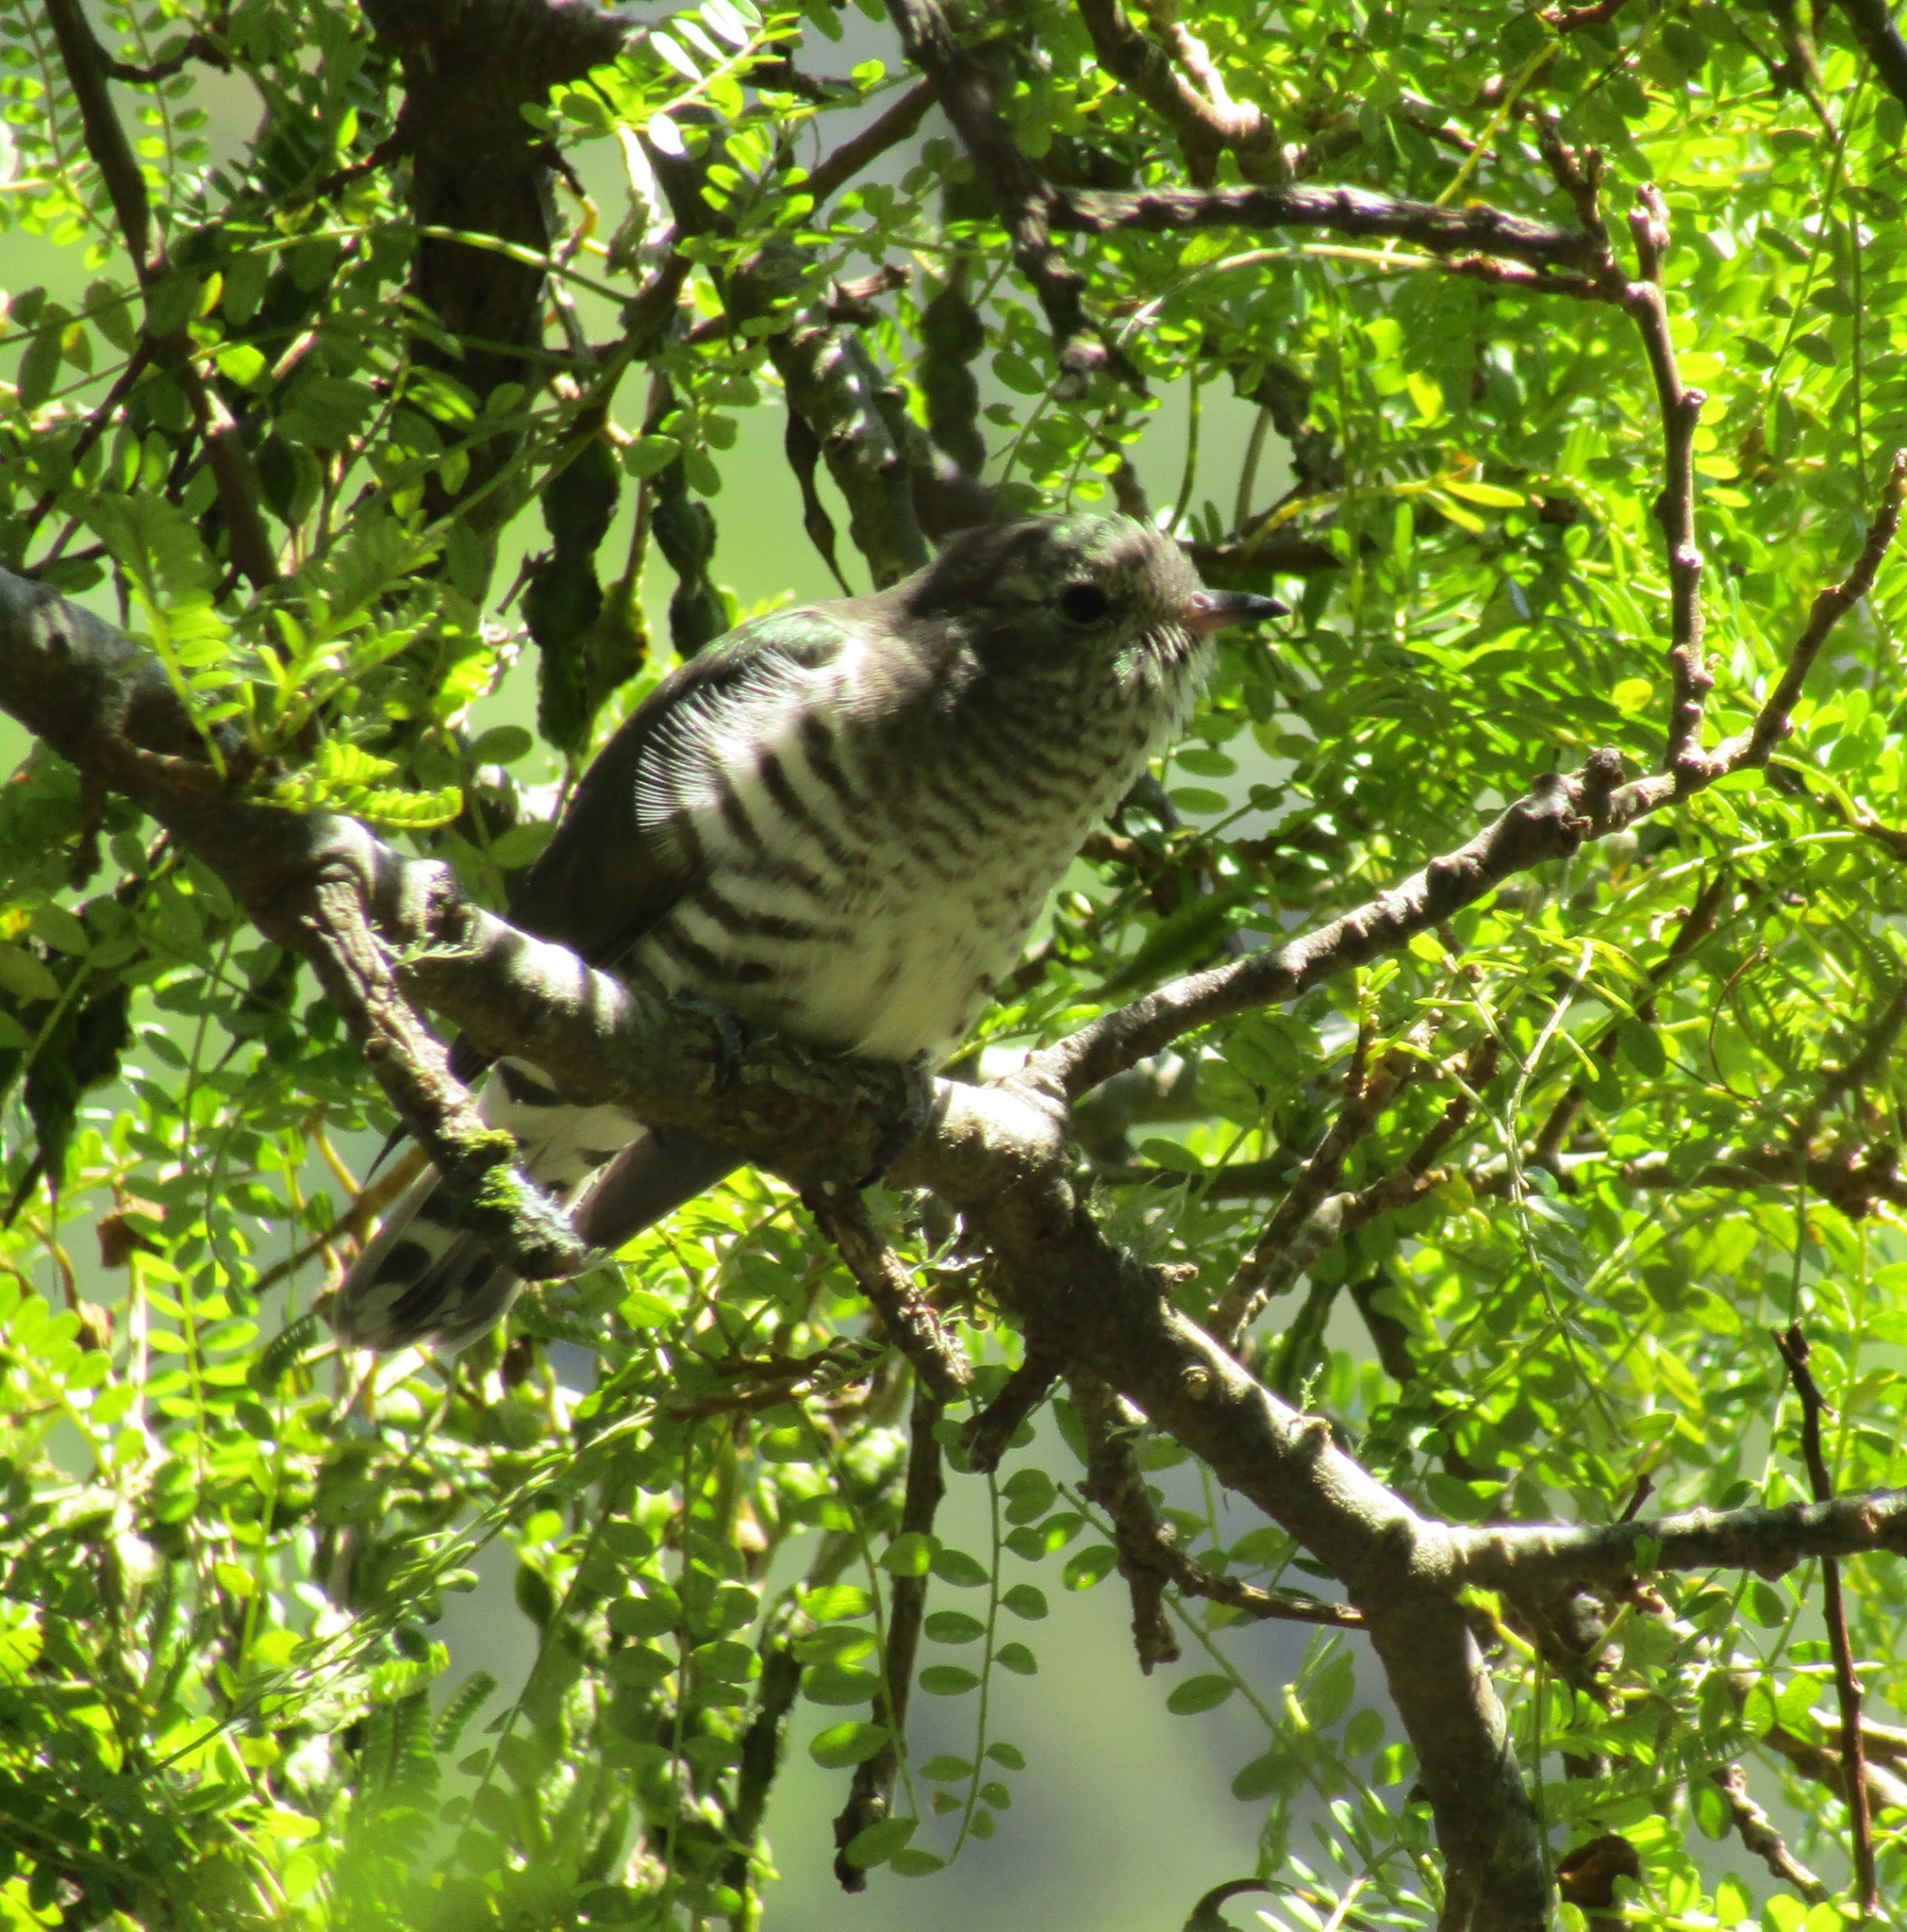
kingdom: Animalia
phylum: Chordata
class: Aves
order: Cuculiformes
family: Cuculidae
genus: Chrysococcyx
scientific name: Chrysococcyx lucidus
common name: Shining bronze cuckoo
